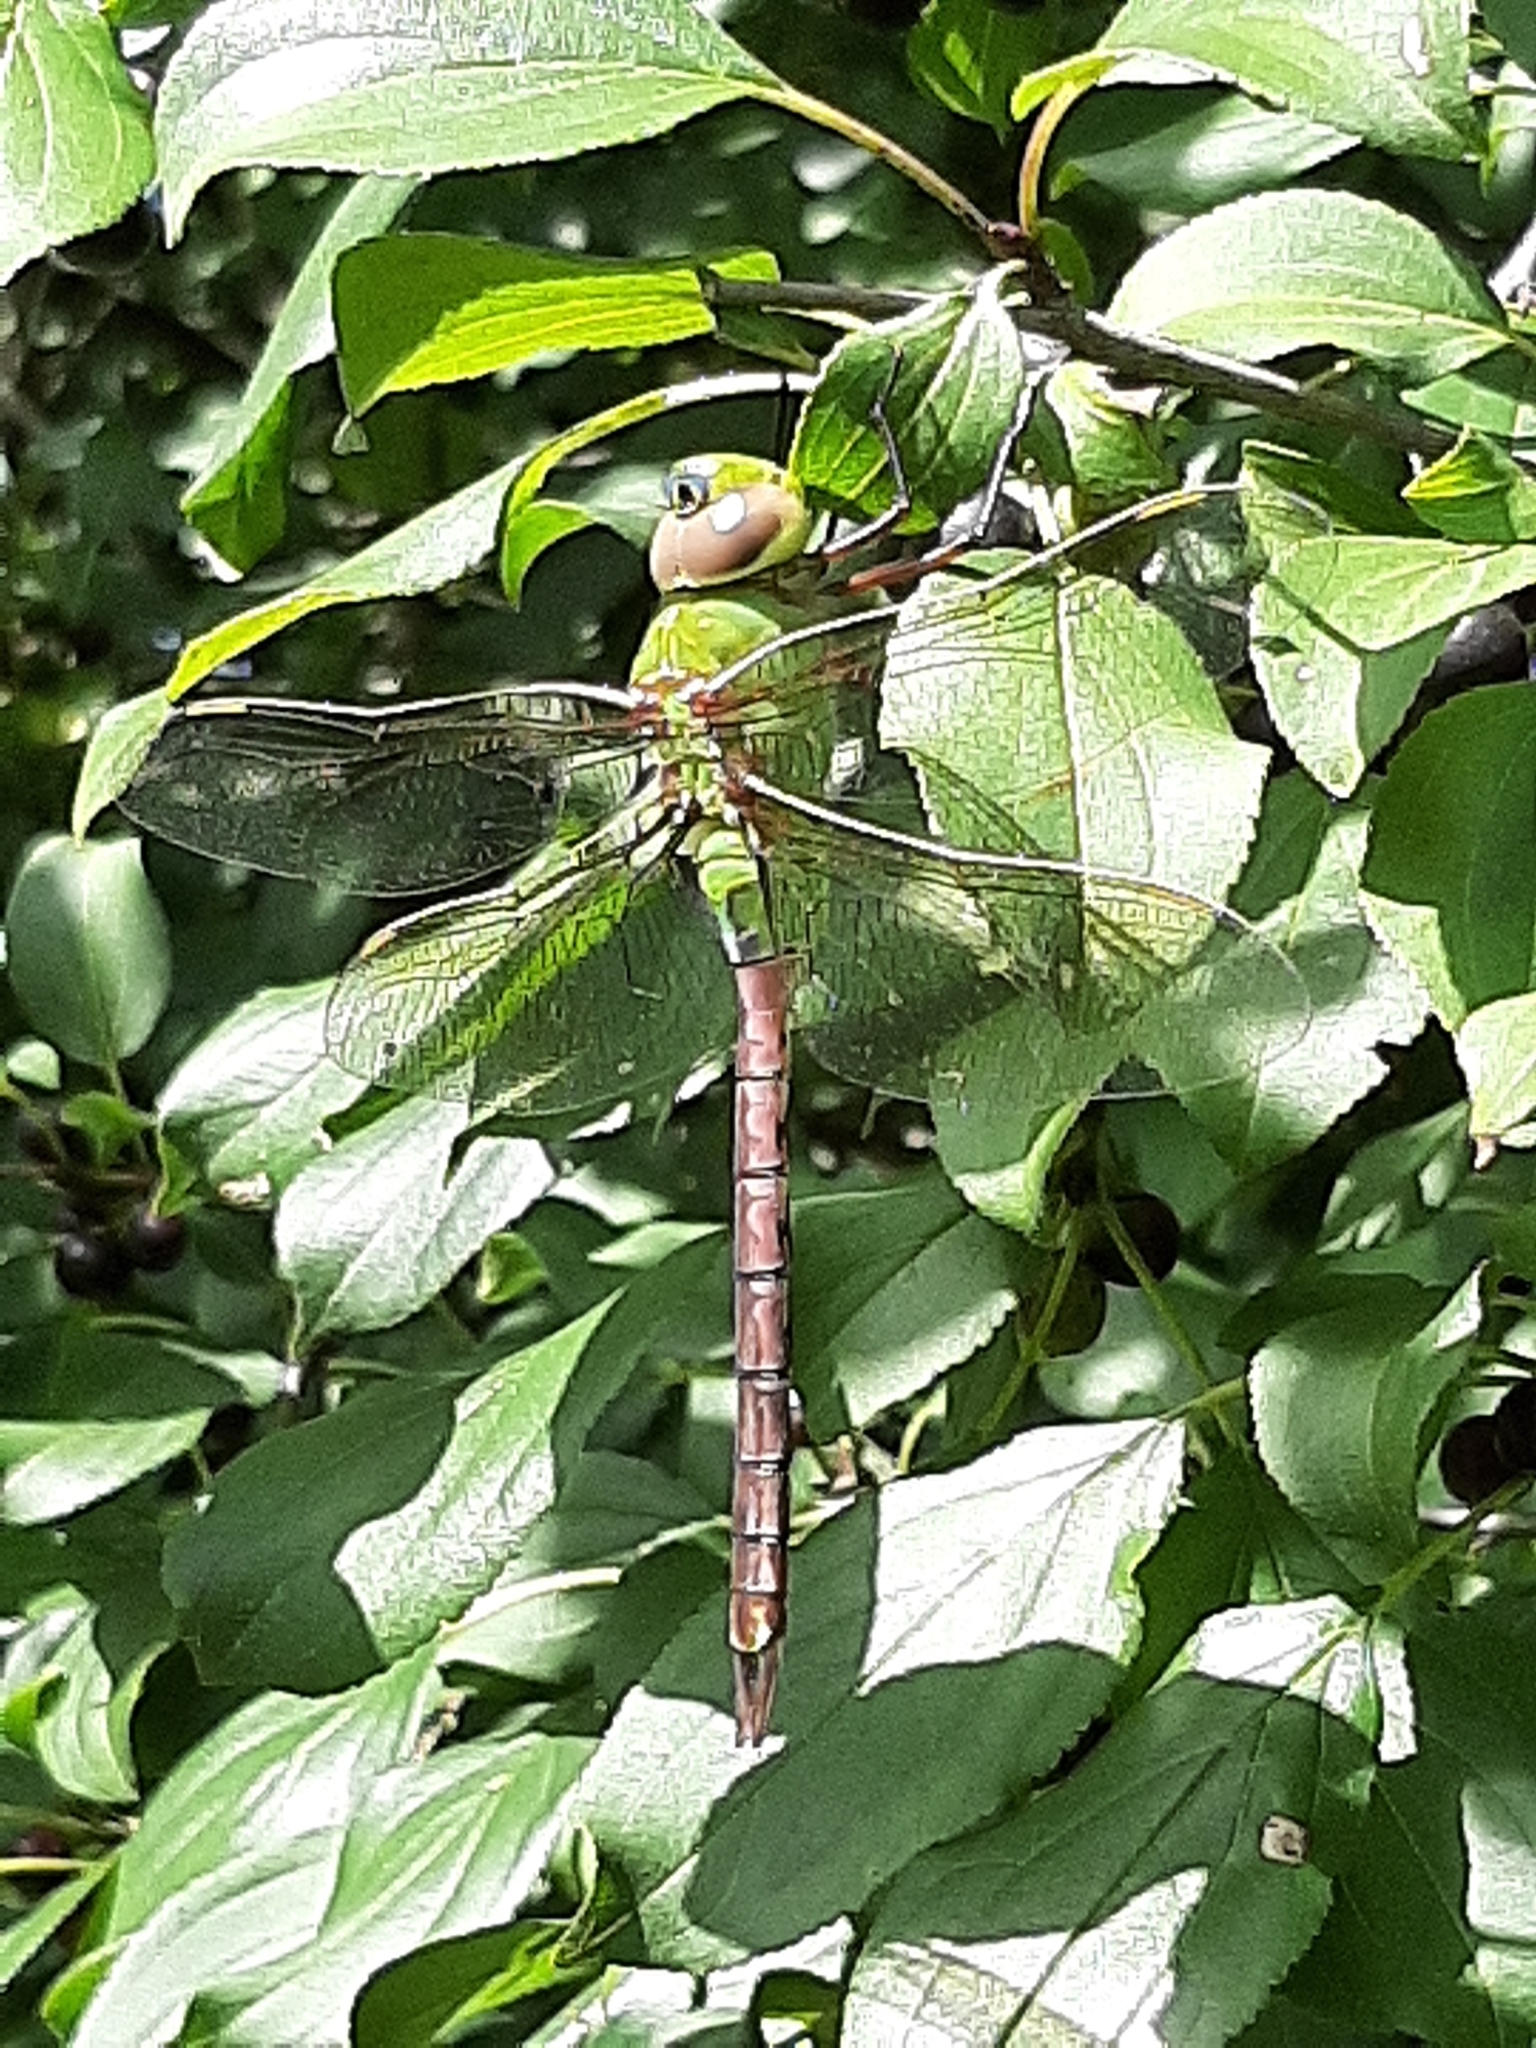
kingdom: Animalia
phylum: Arthropoda
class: Insecta
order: Odonata
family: Aeshnidae
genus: Anax
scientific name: Anax junius
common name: Common green darner
